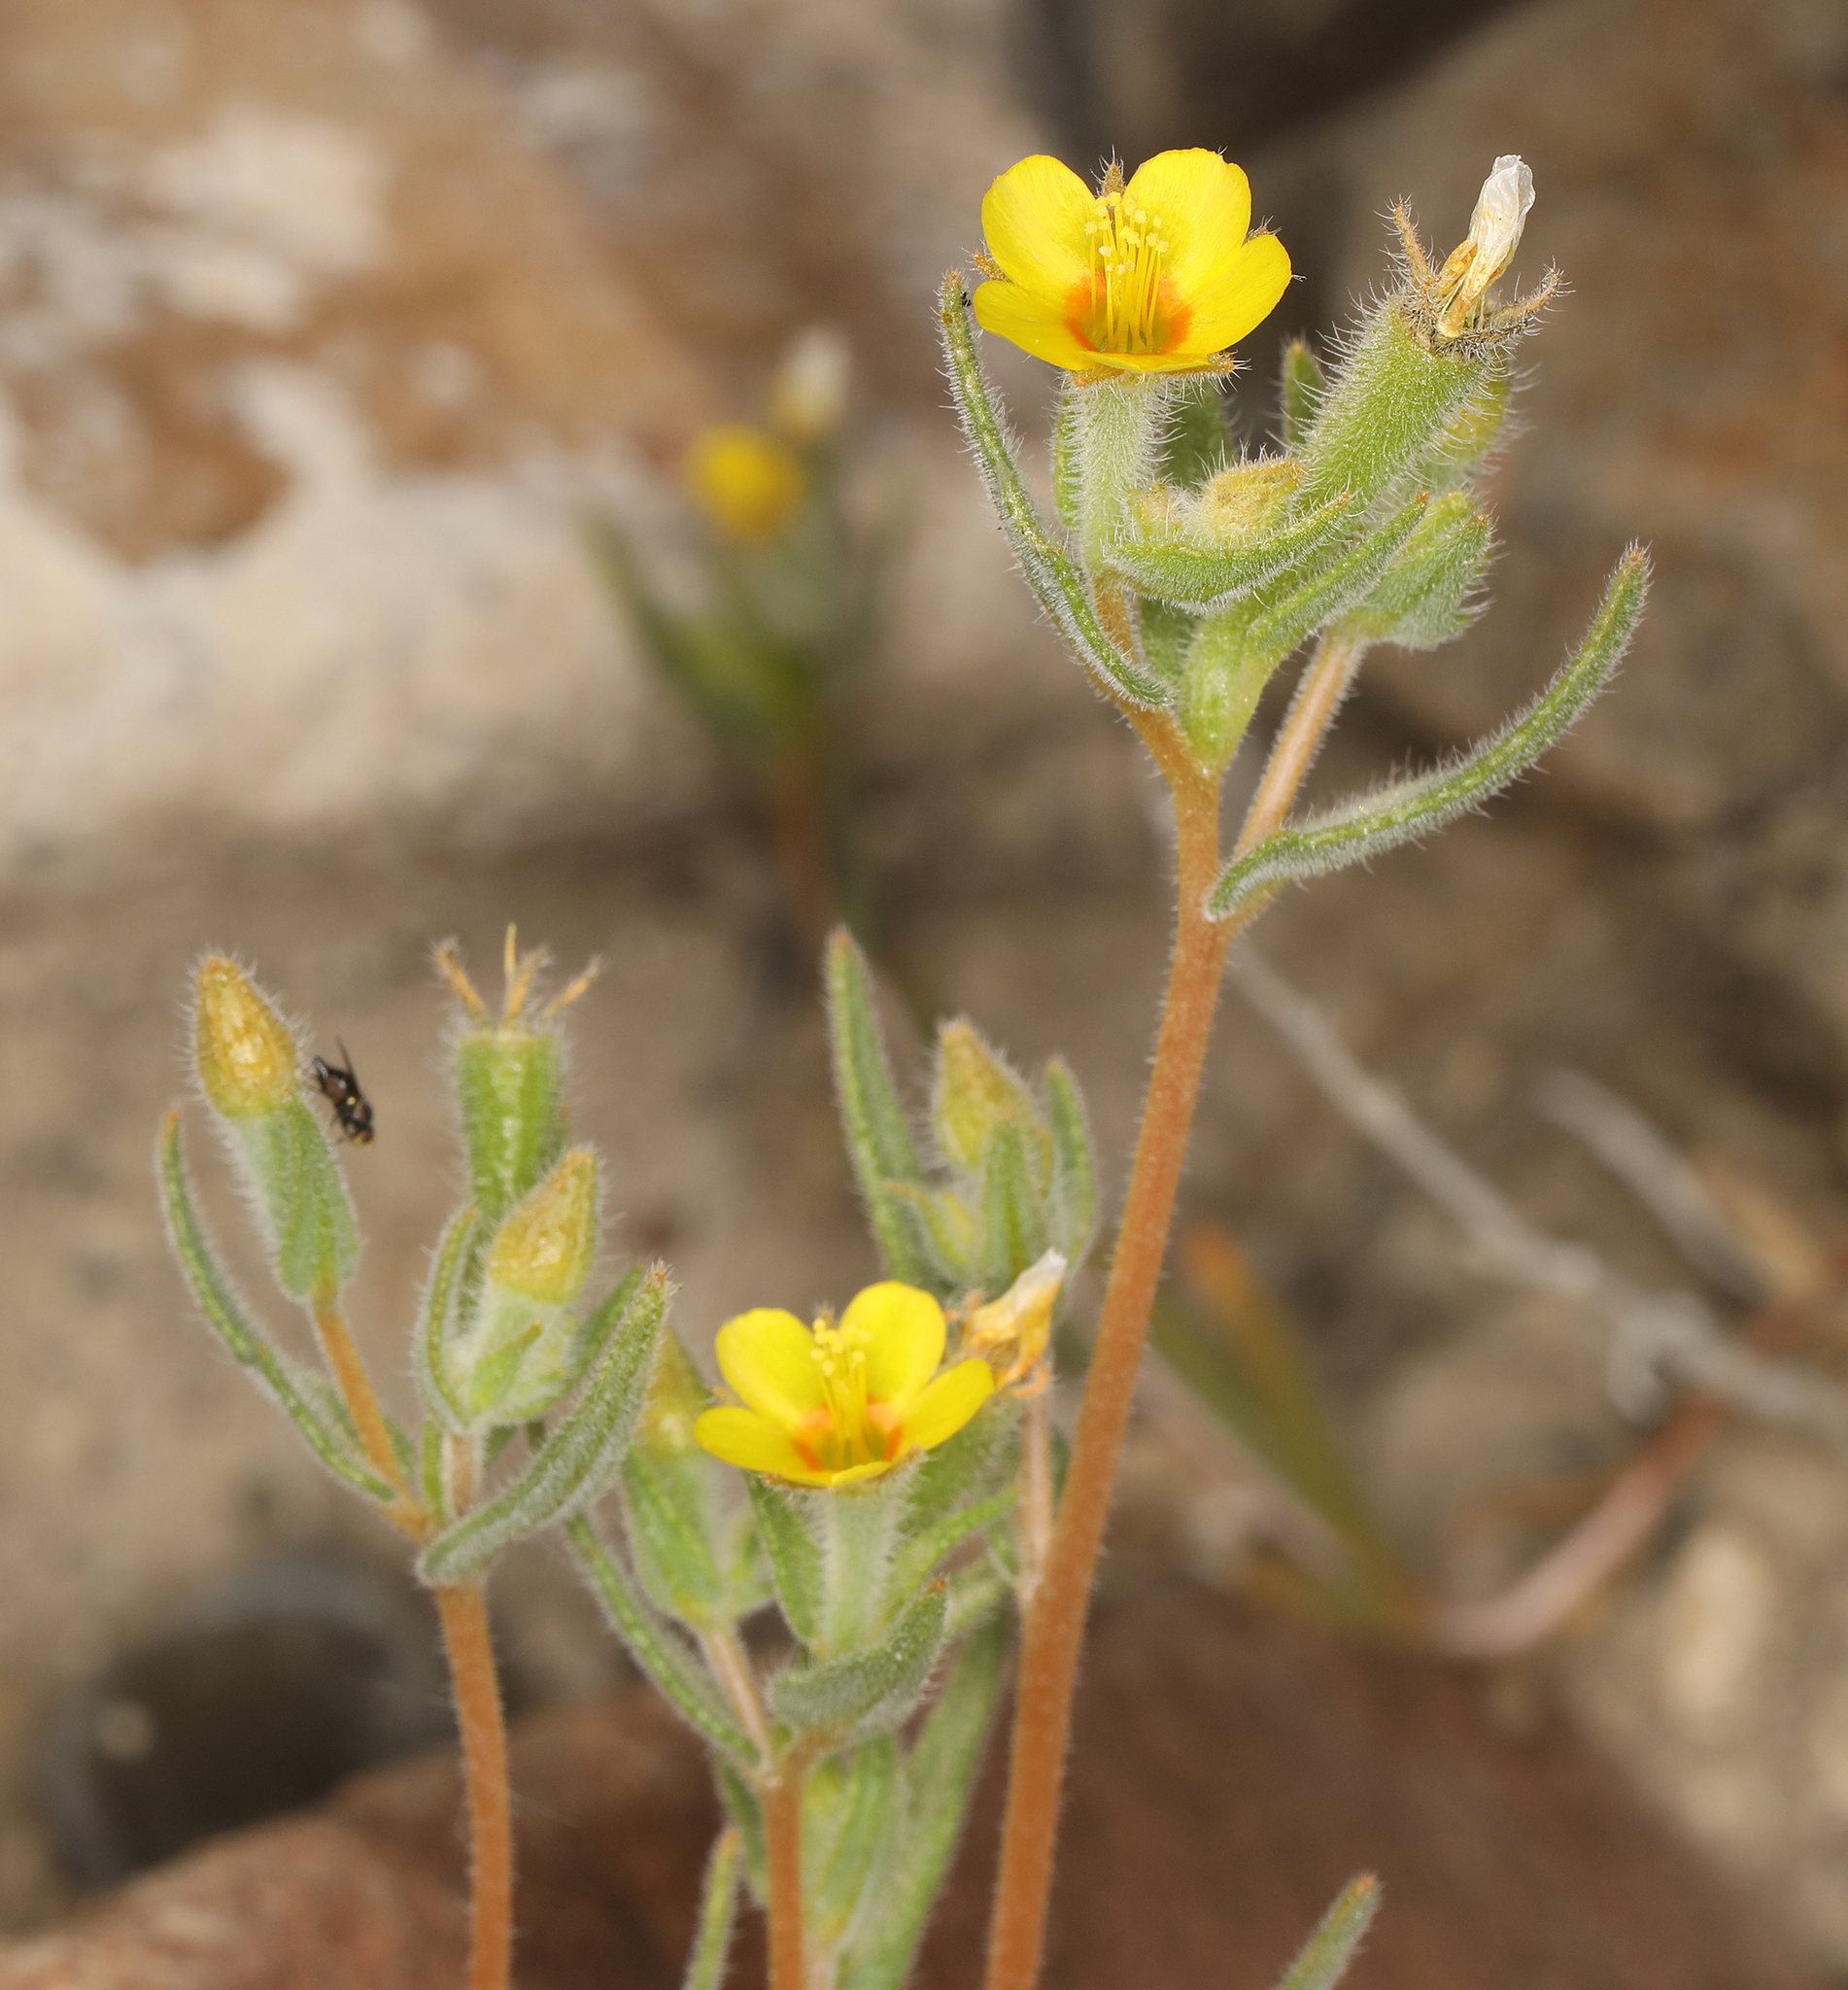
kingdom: Plantae
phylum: Tracheophyta
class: Magnoliopsida
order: Cornales
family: Loasaceae
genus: Mentzelia
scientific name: Mentzelia albicaulis
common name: White-stem blazingstar
